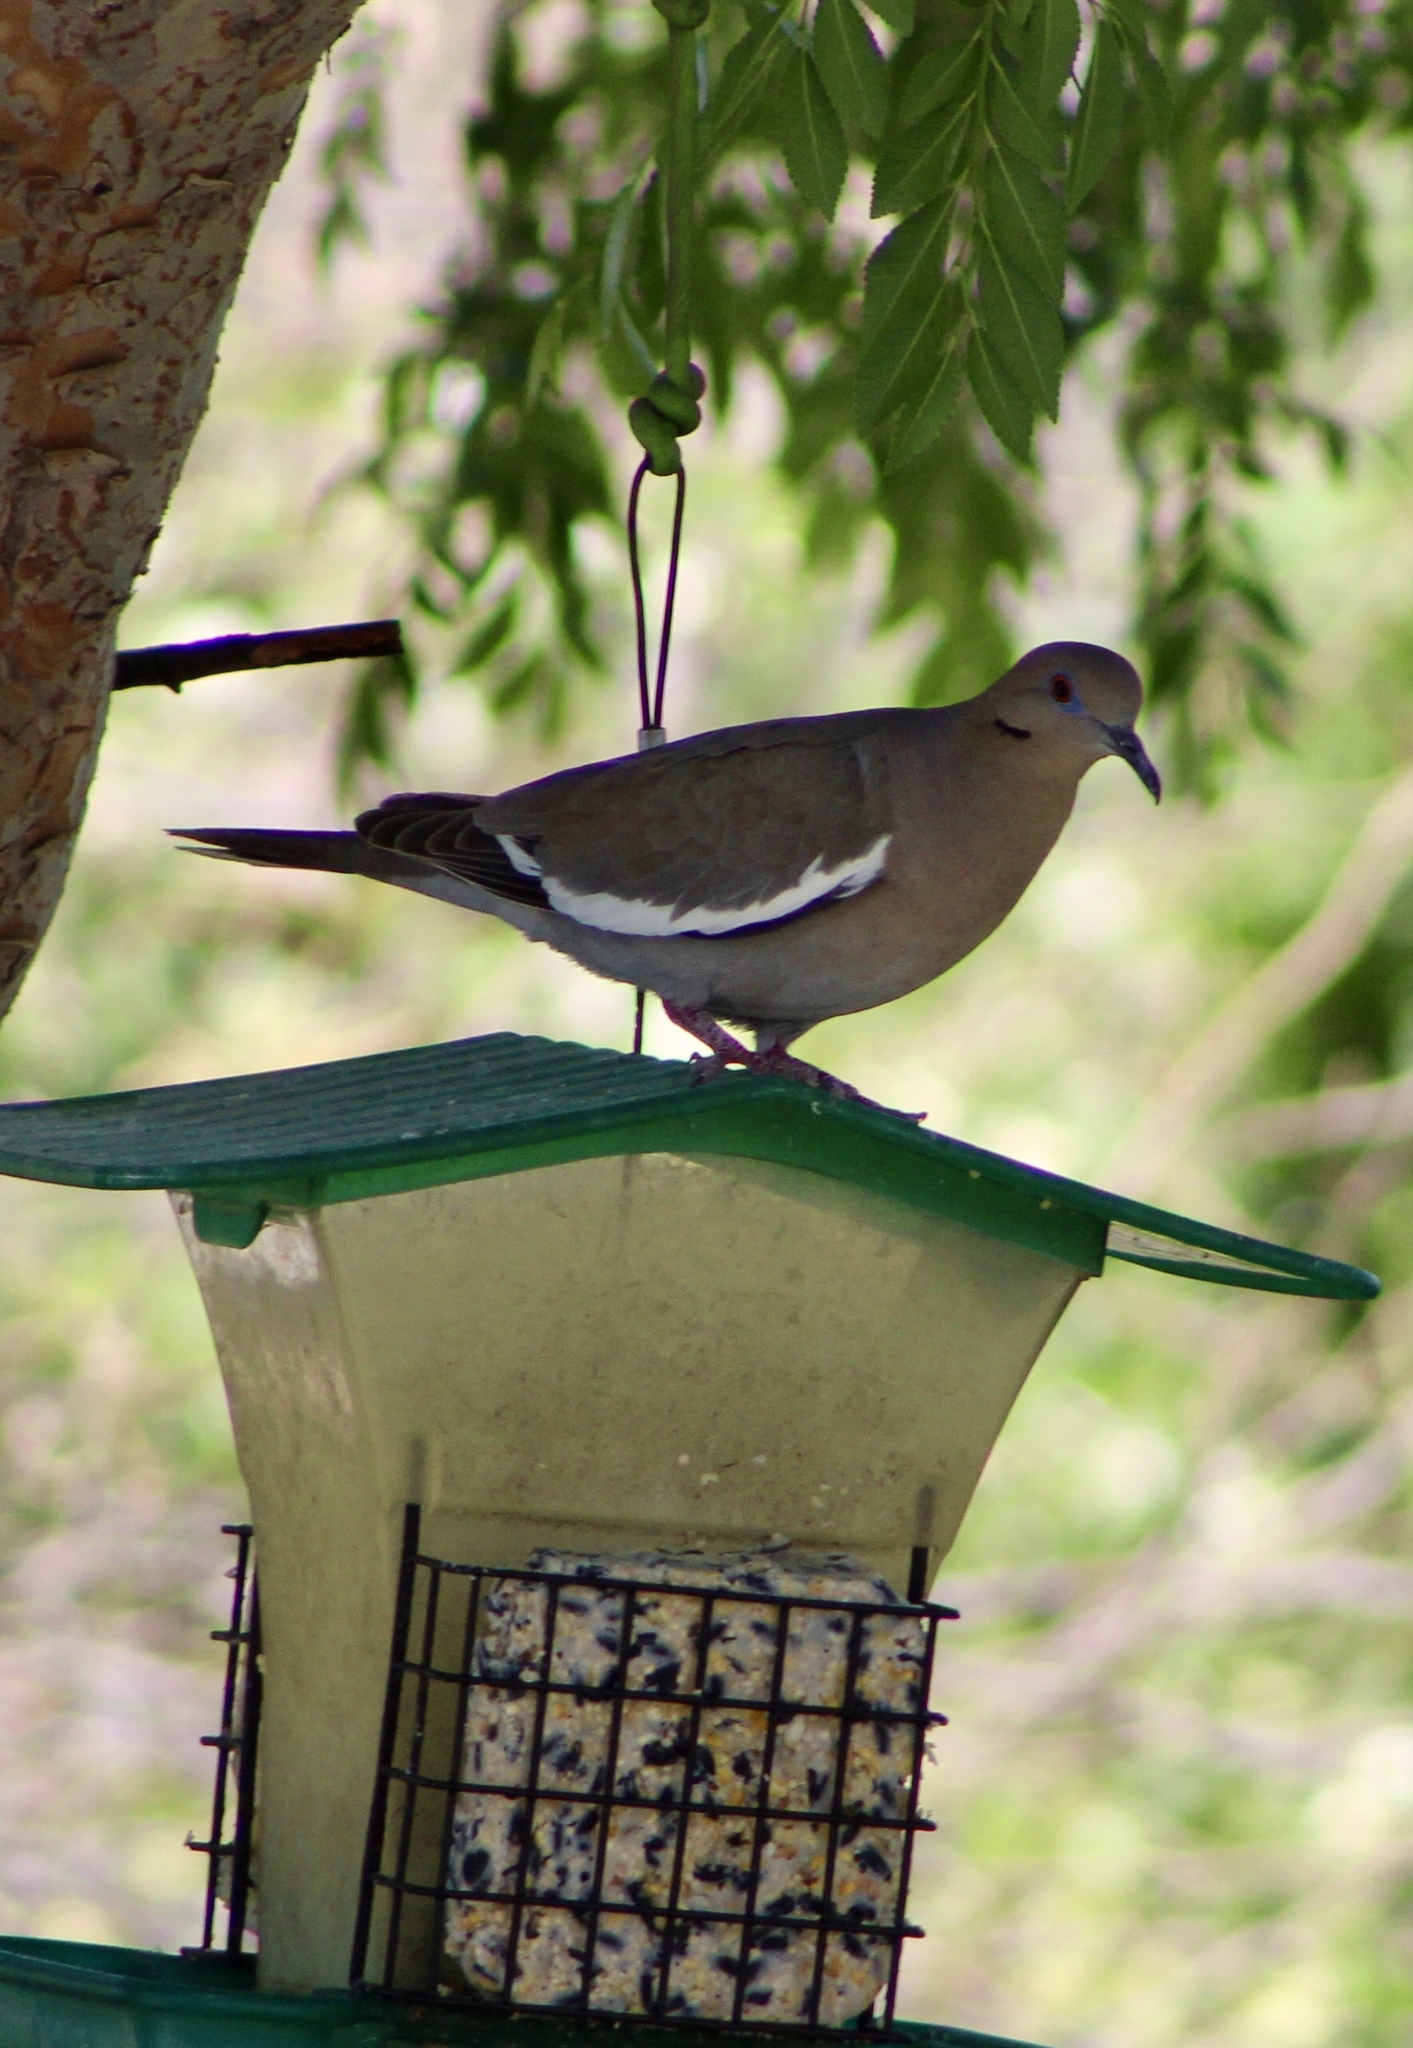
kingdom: Animalia
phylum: Chordata
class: Aves
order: Columbiformes
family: Columbidae
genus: Zenaida
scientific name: Zenaida asiatica
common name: White-winged dove
